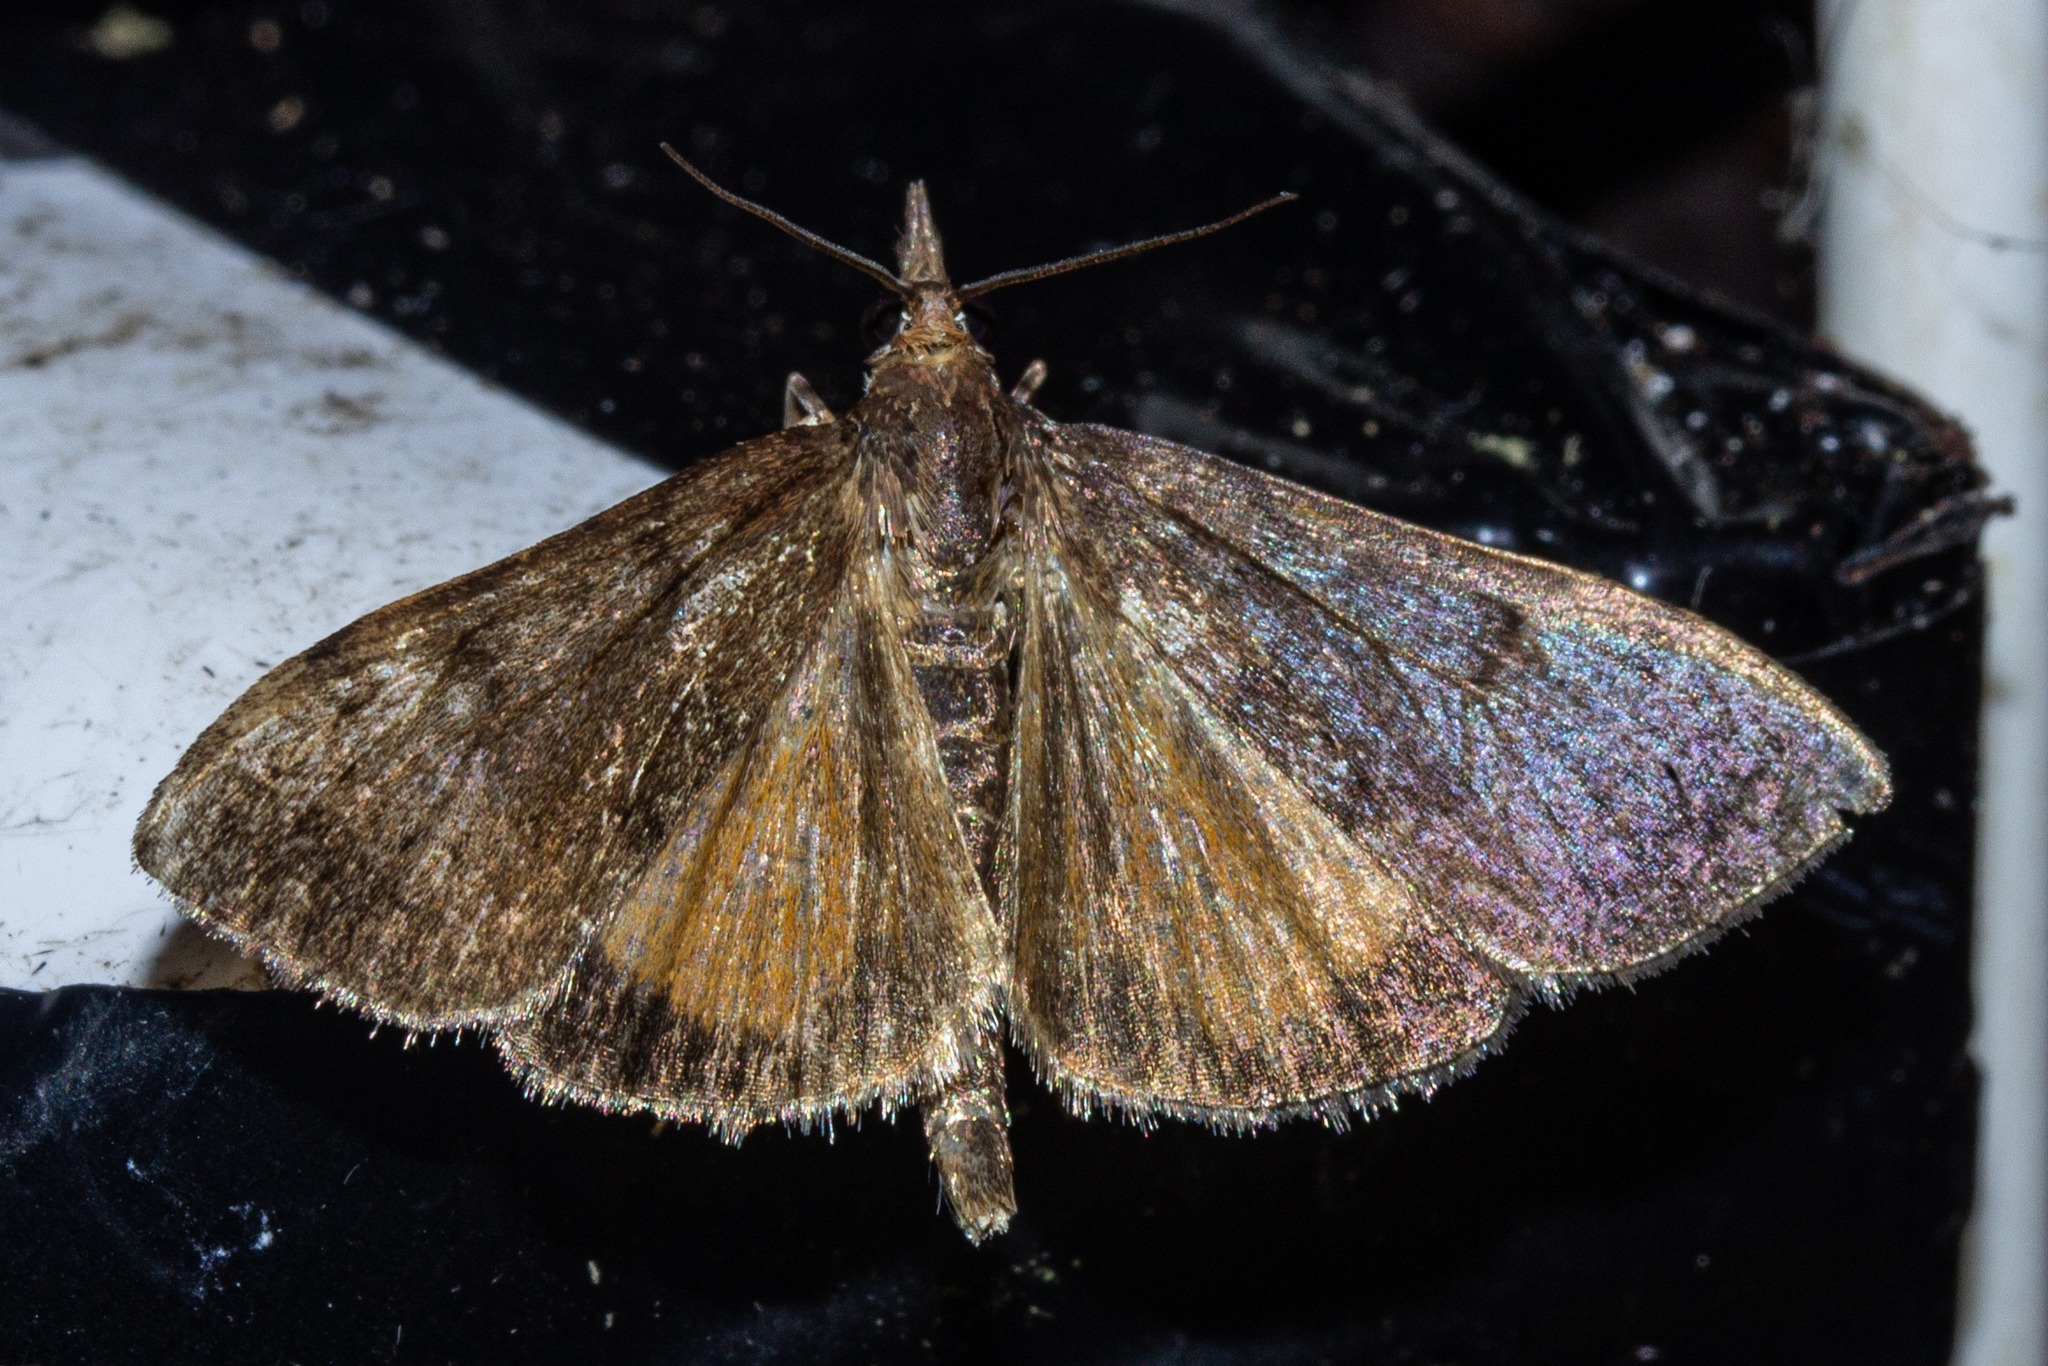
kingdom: Animalia
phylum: Arthropoda
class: Insecta
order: Lepidoptera
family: Crambidae
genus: Uresiphita
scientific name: Uresiphita
